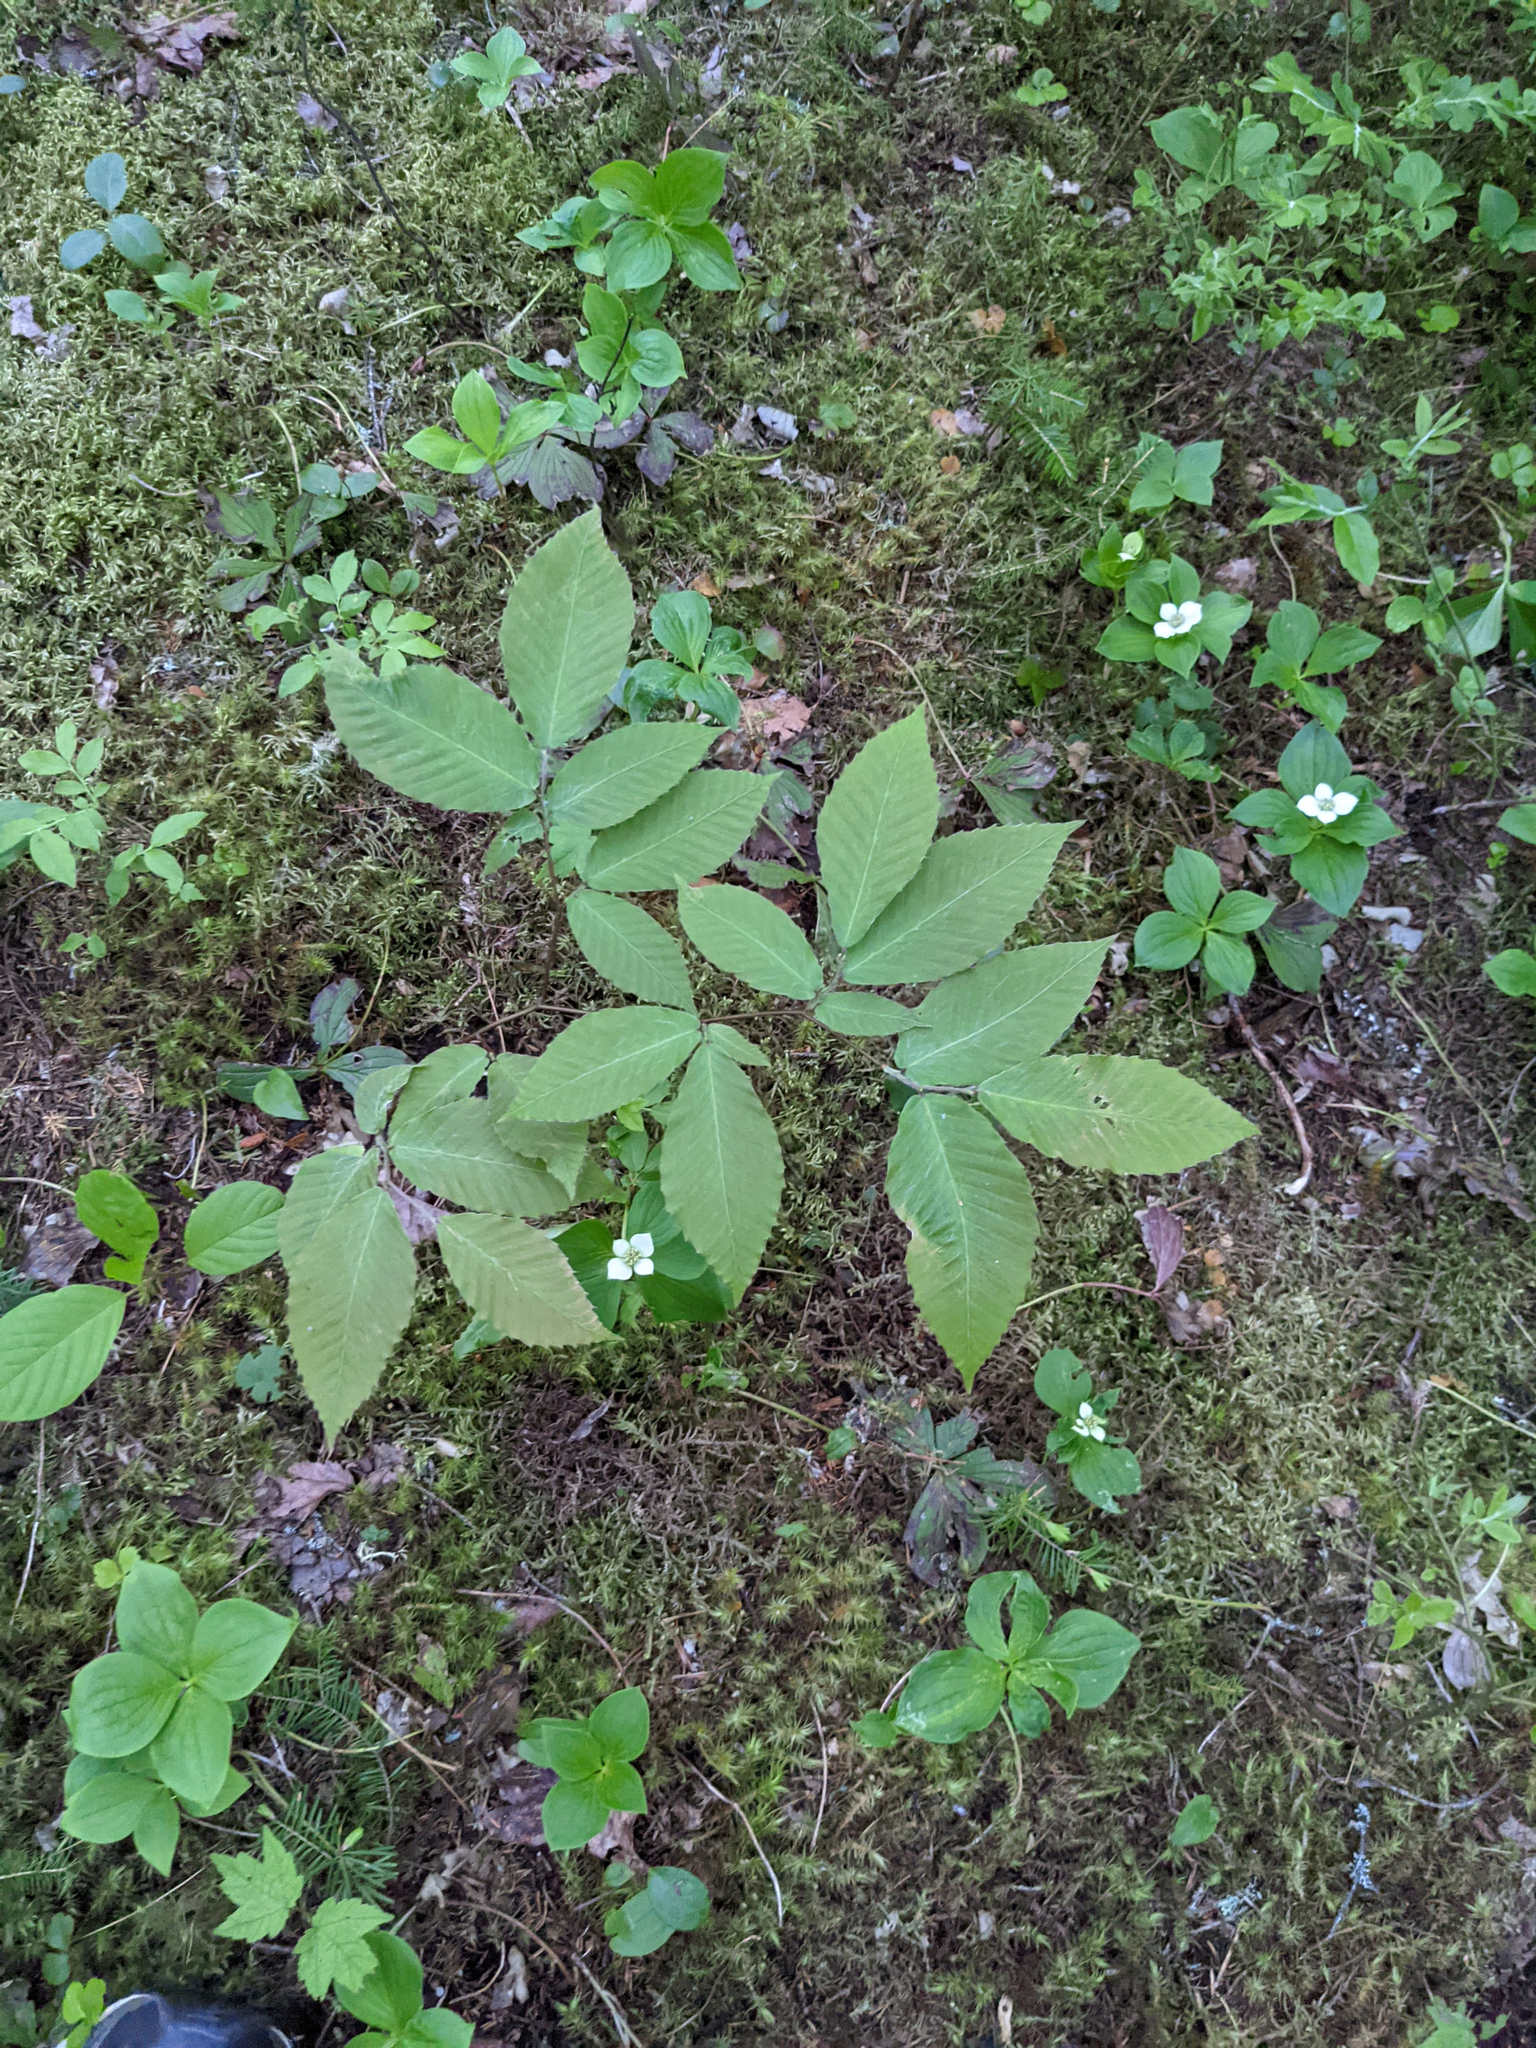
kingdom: Plantae
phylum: Tracheophyta
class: Magnoliopsida
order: Cornales
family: Cornaceae
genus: Cornus
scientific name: Cornus canadensis
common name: Creeping dogwood
